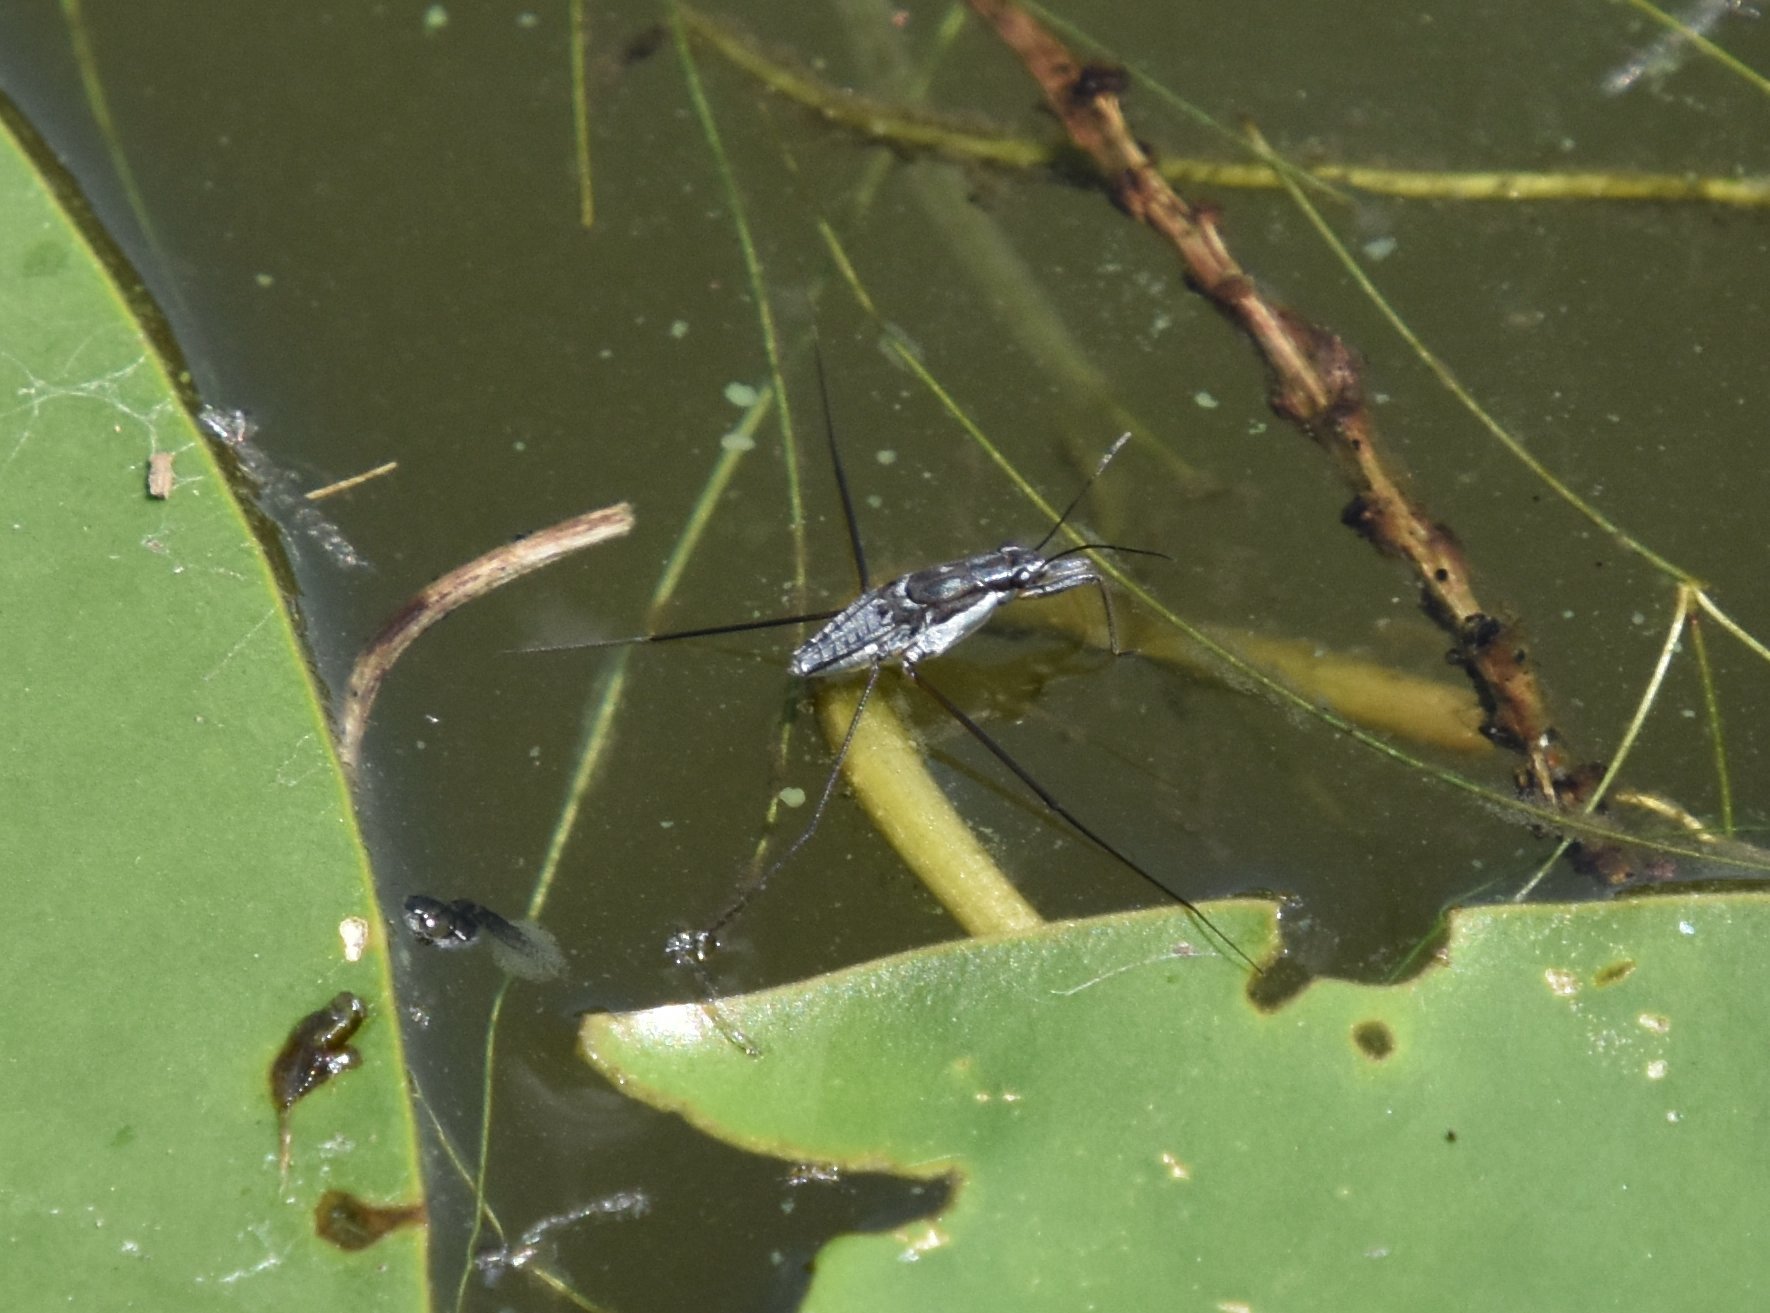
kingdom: Animalia
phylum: Arthropoda
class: Insecta
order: Hemiptera
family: Gerridae
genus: Neogerris
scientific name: Neogerris hesione
